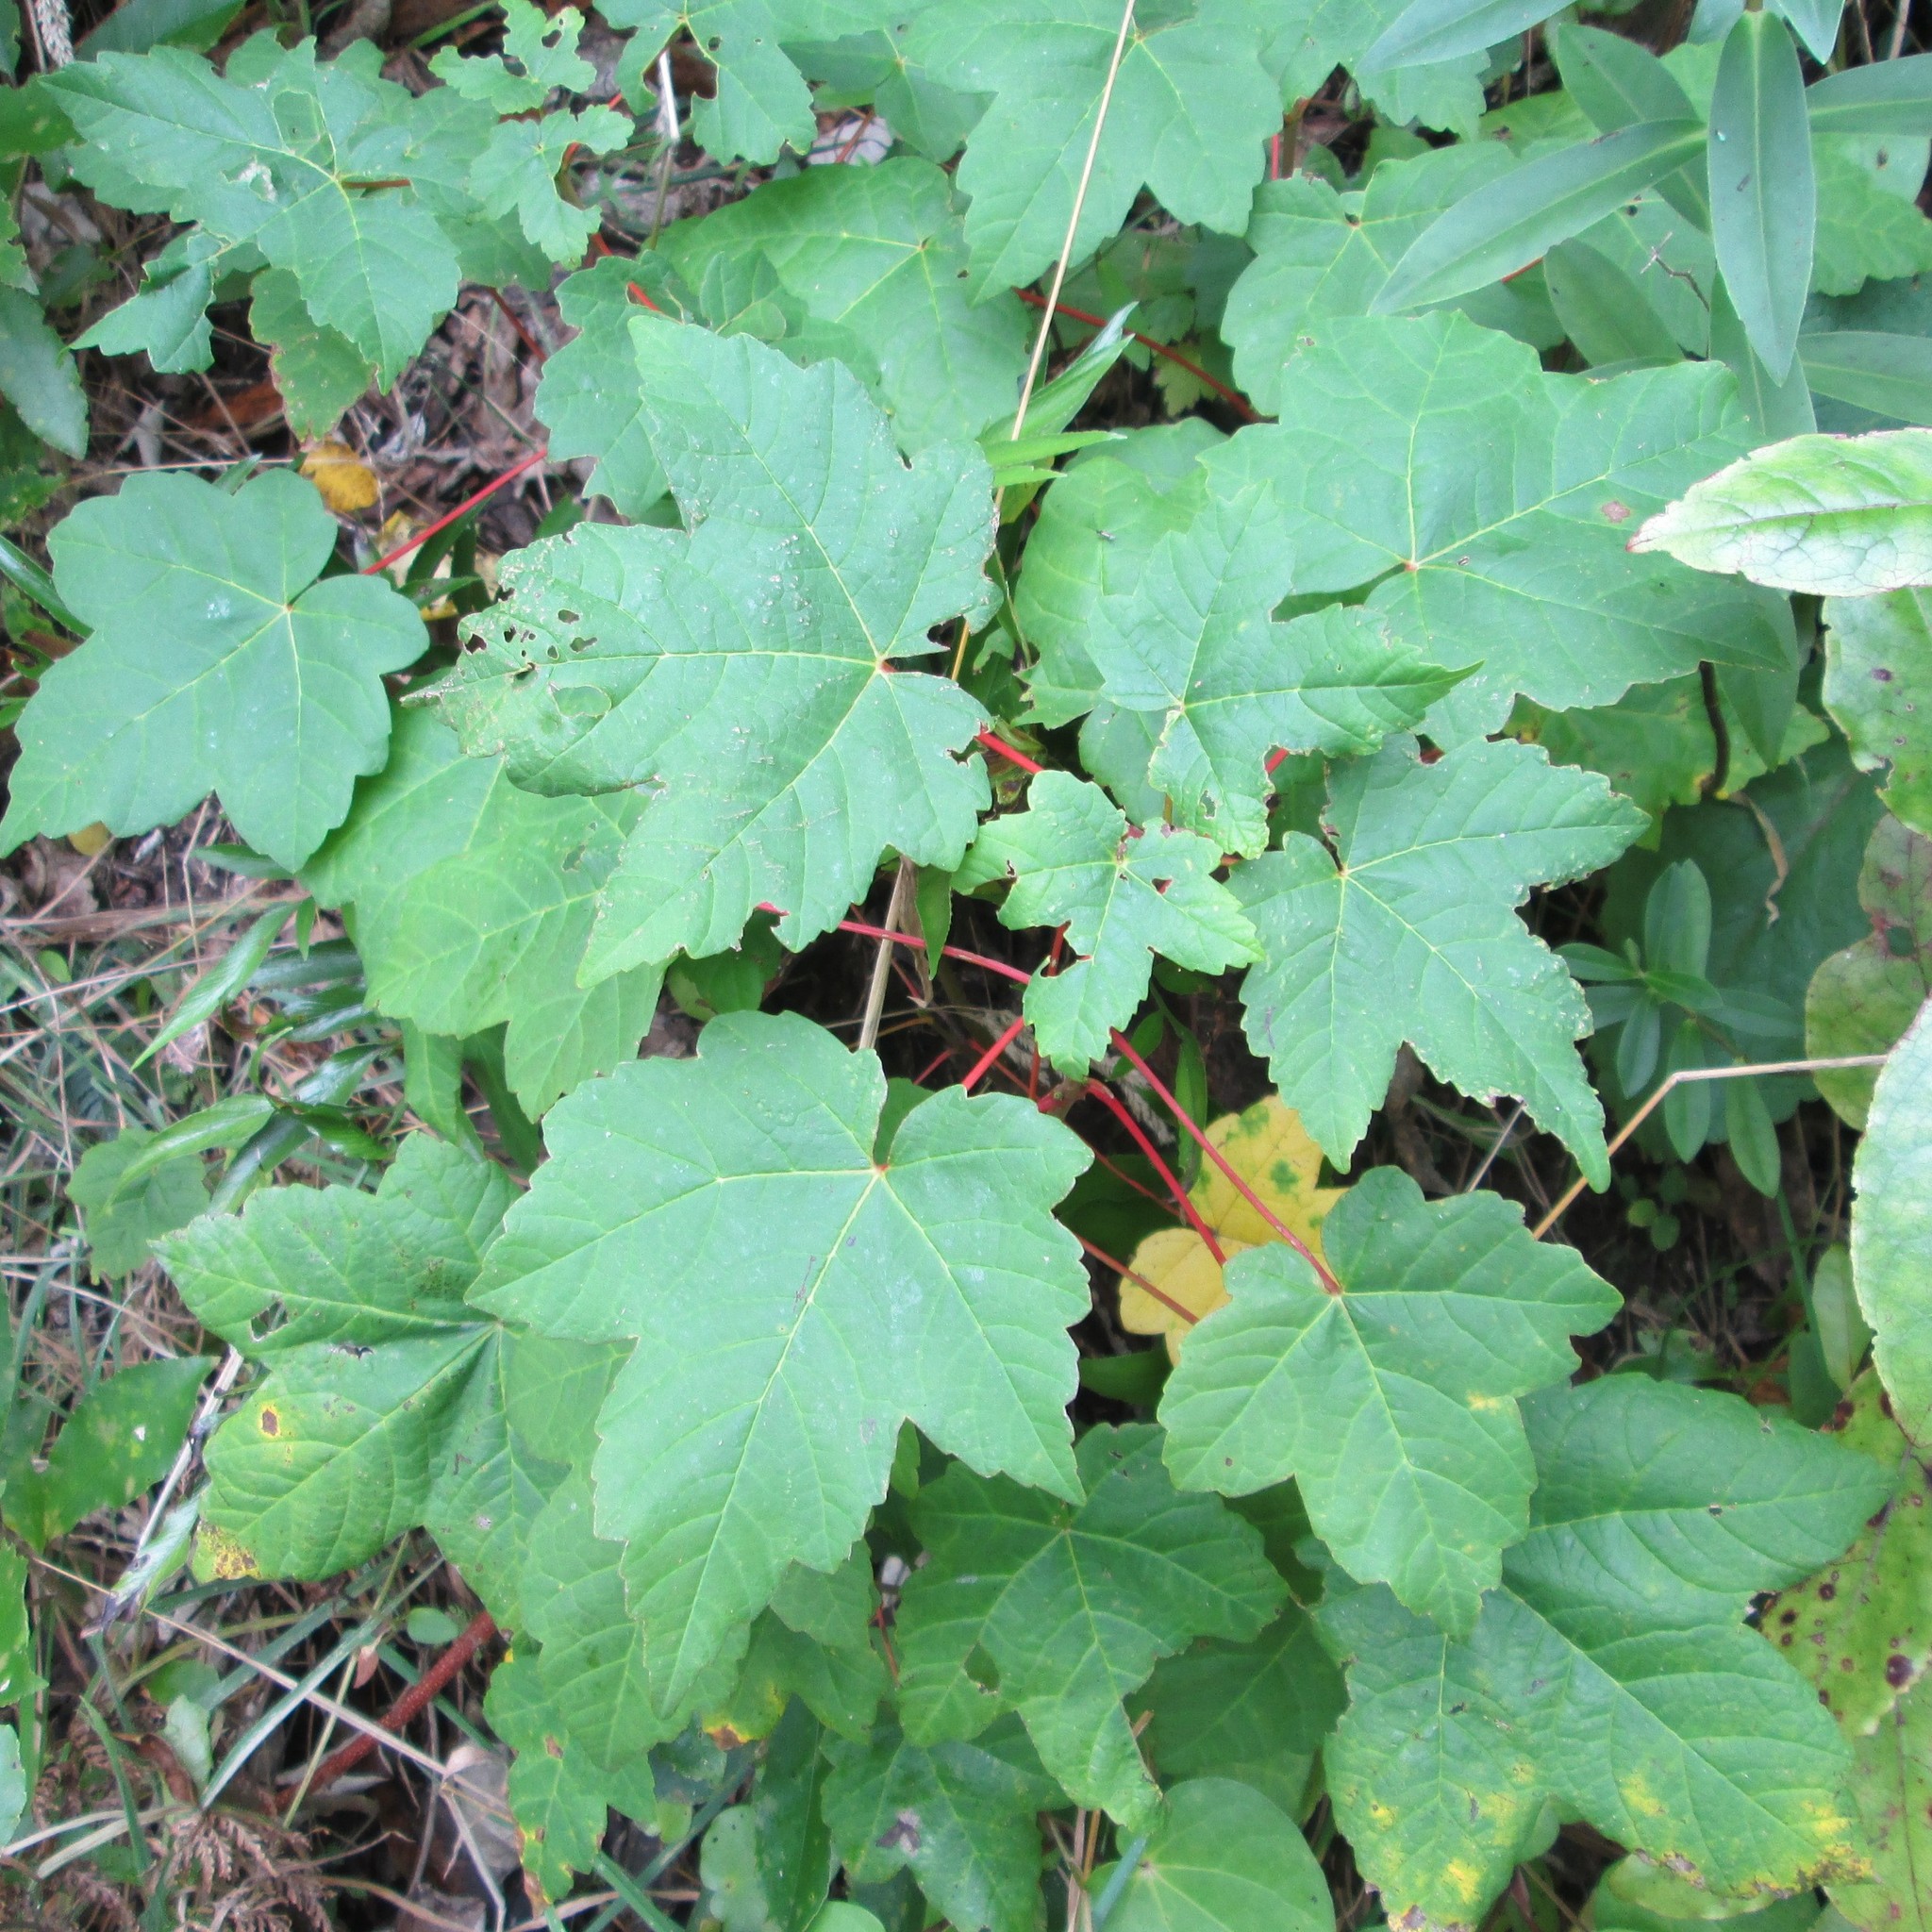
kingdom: Plantae
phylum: Tracheophyta
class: Magnoliopsida
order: Sapindales
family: Sapindaceae
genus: Acer
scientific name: Acer pseudoplatanus
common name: Sycamore
